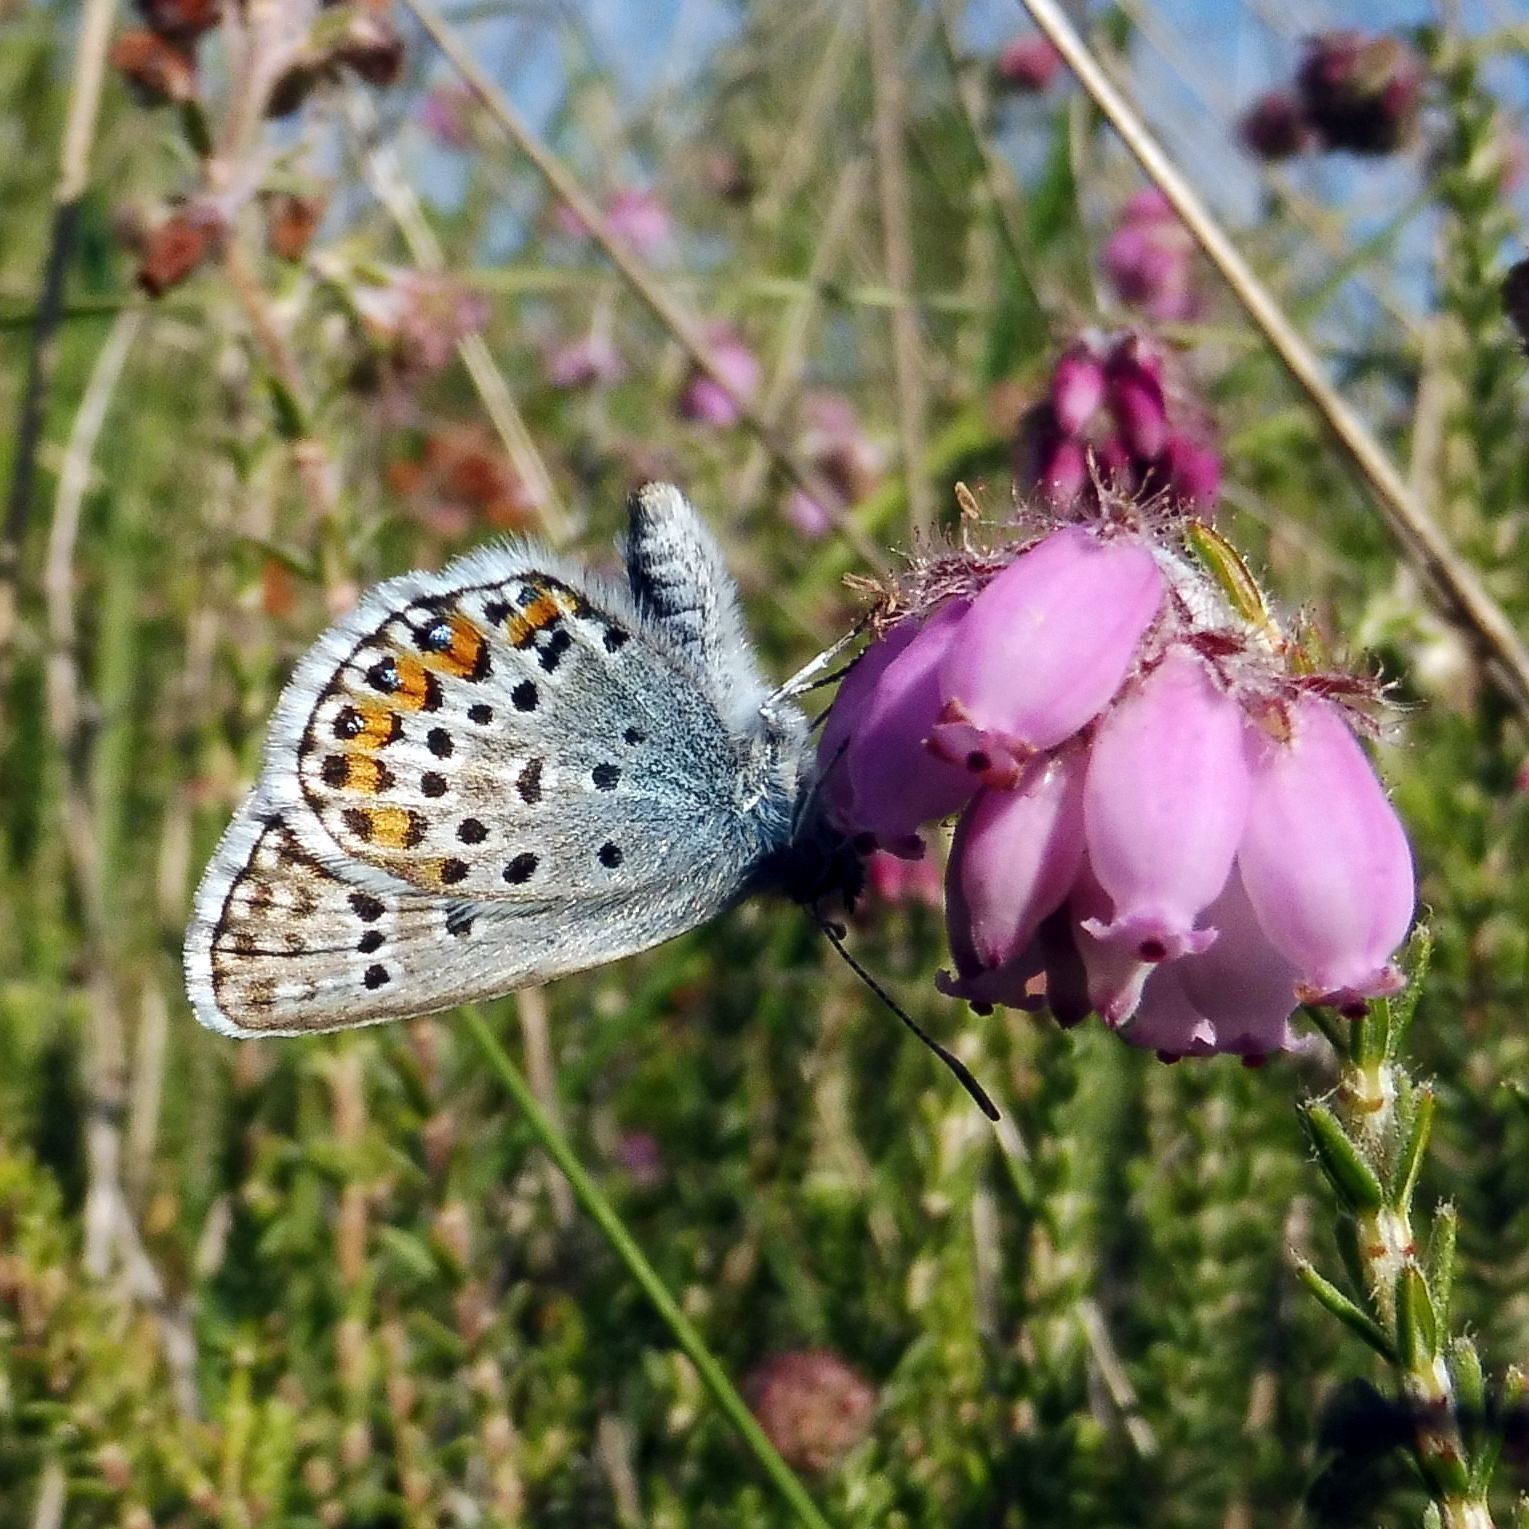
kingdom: Animalia
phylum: Arthropoda
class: Insecta
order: Lepidoptera
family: Lycaenidae
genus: Plebejus
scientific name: Plebejus argus
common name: Silver-studded blue
